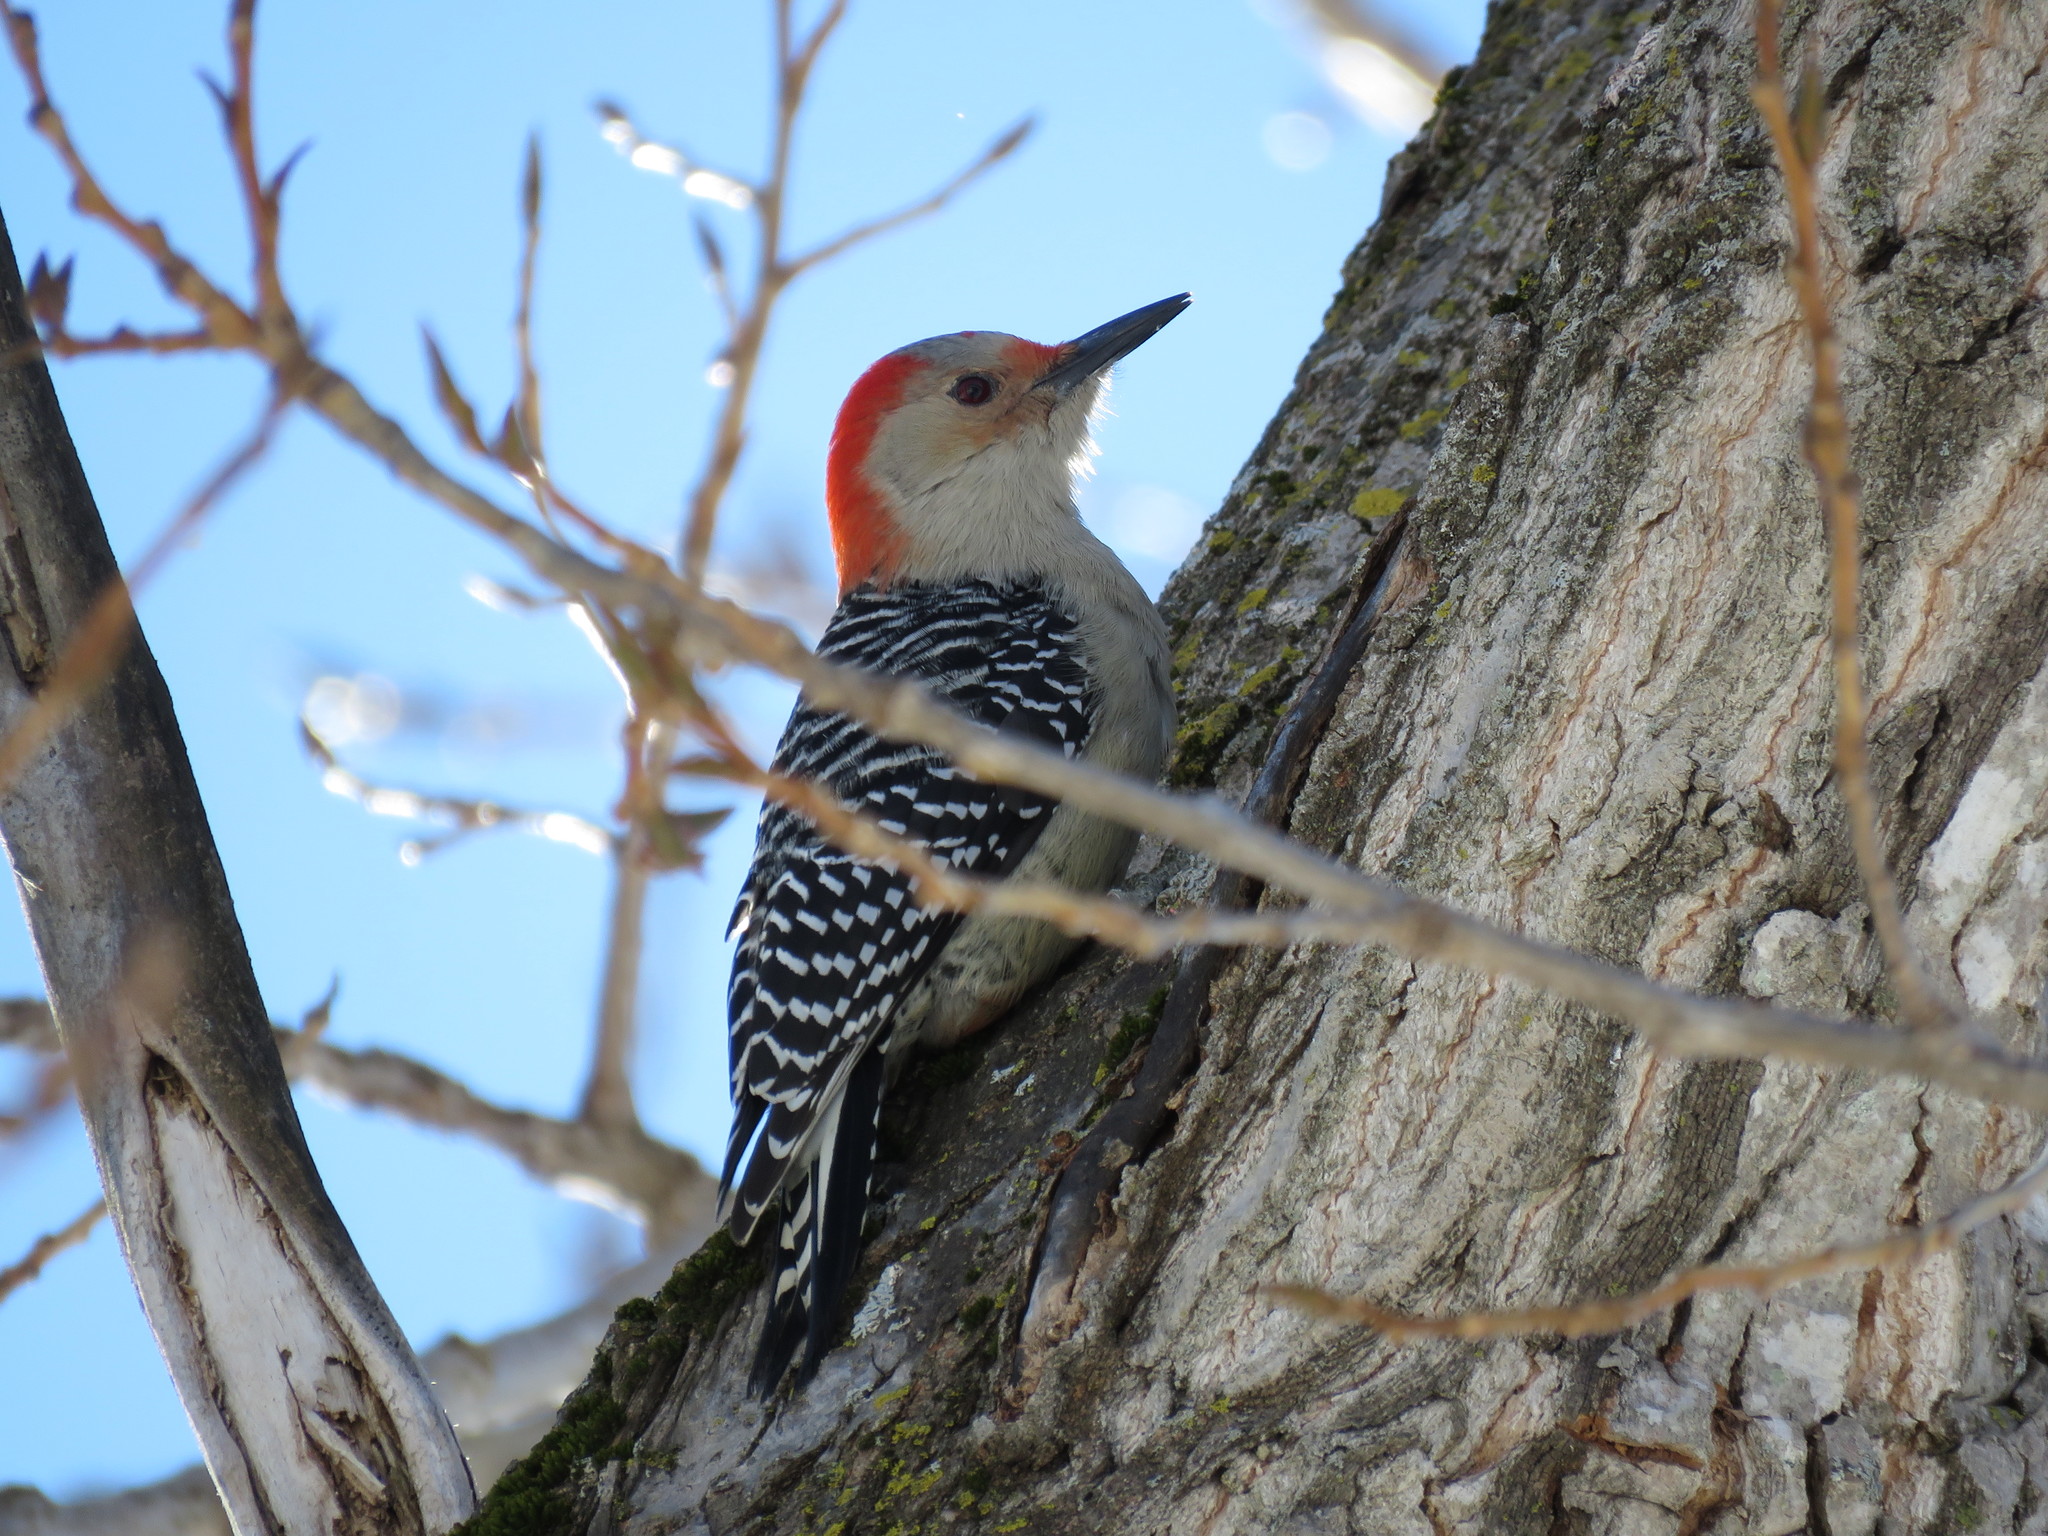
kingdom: Animalia
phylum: Chordata
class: Aves
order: Piciformes
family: Picidae
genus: Melanerpes
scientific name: Melanerpes carolinus
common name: Red-bellied woodpecker
